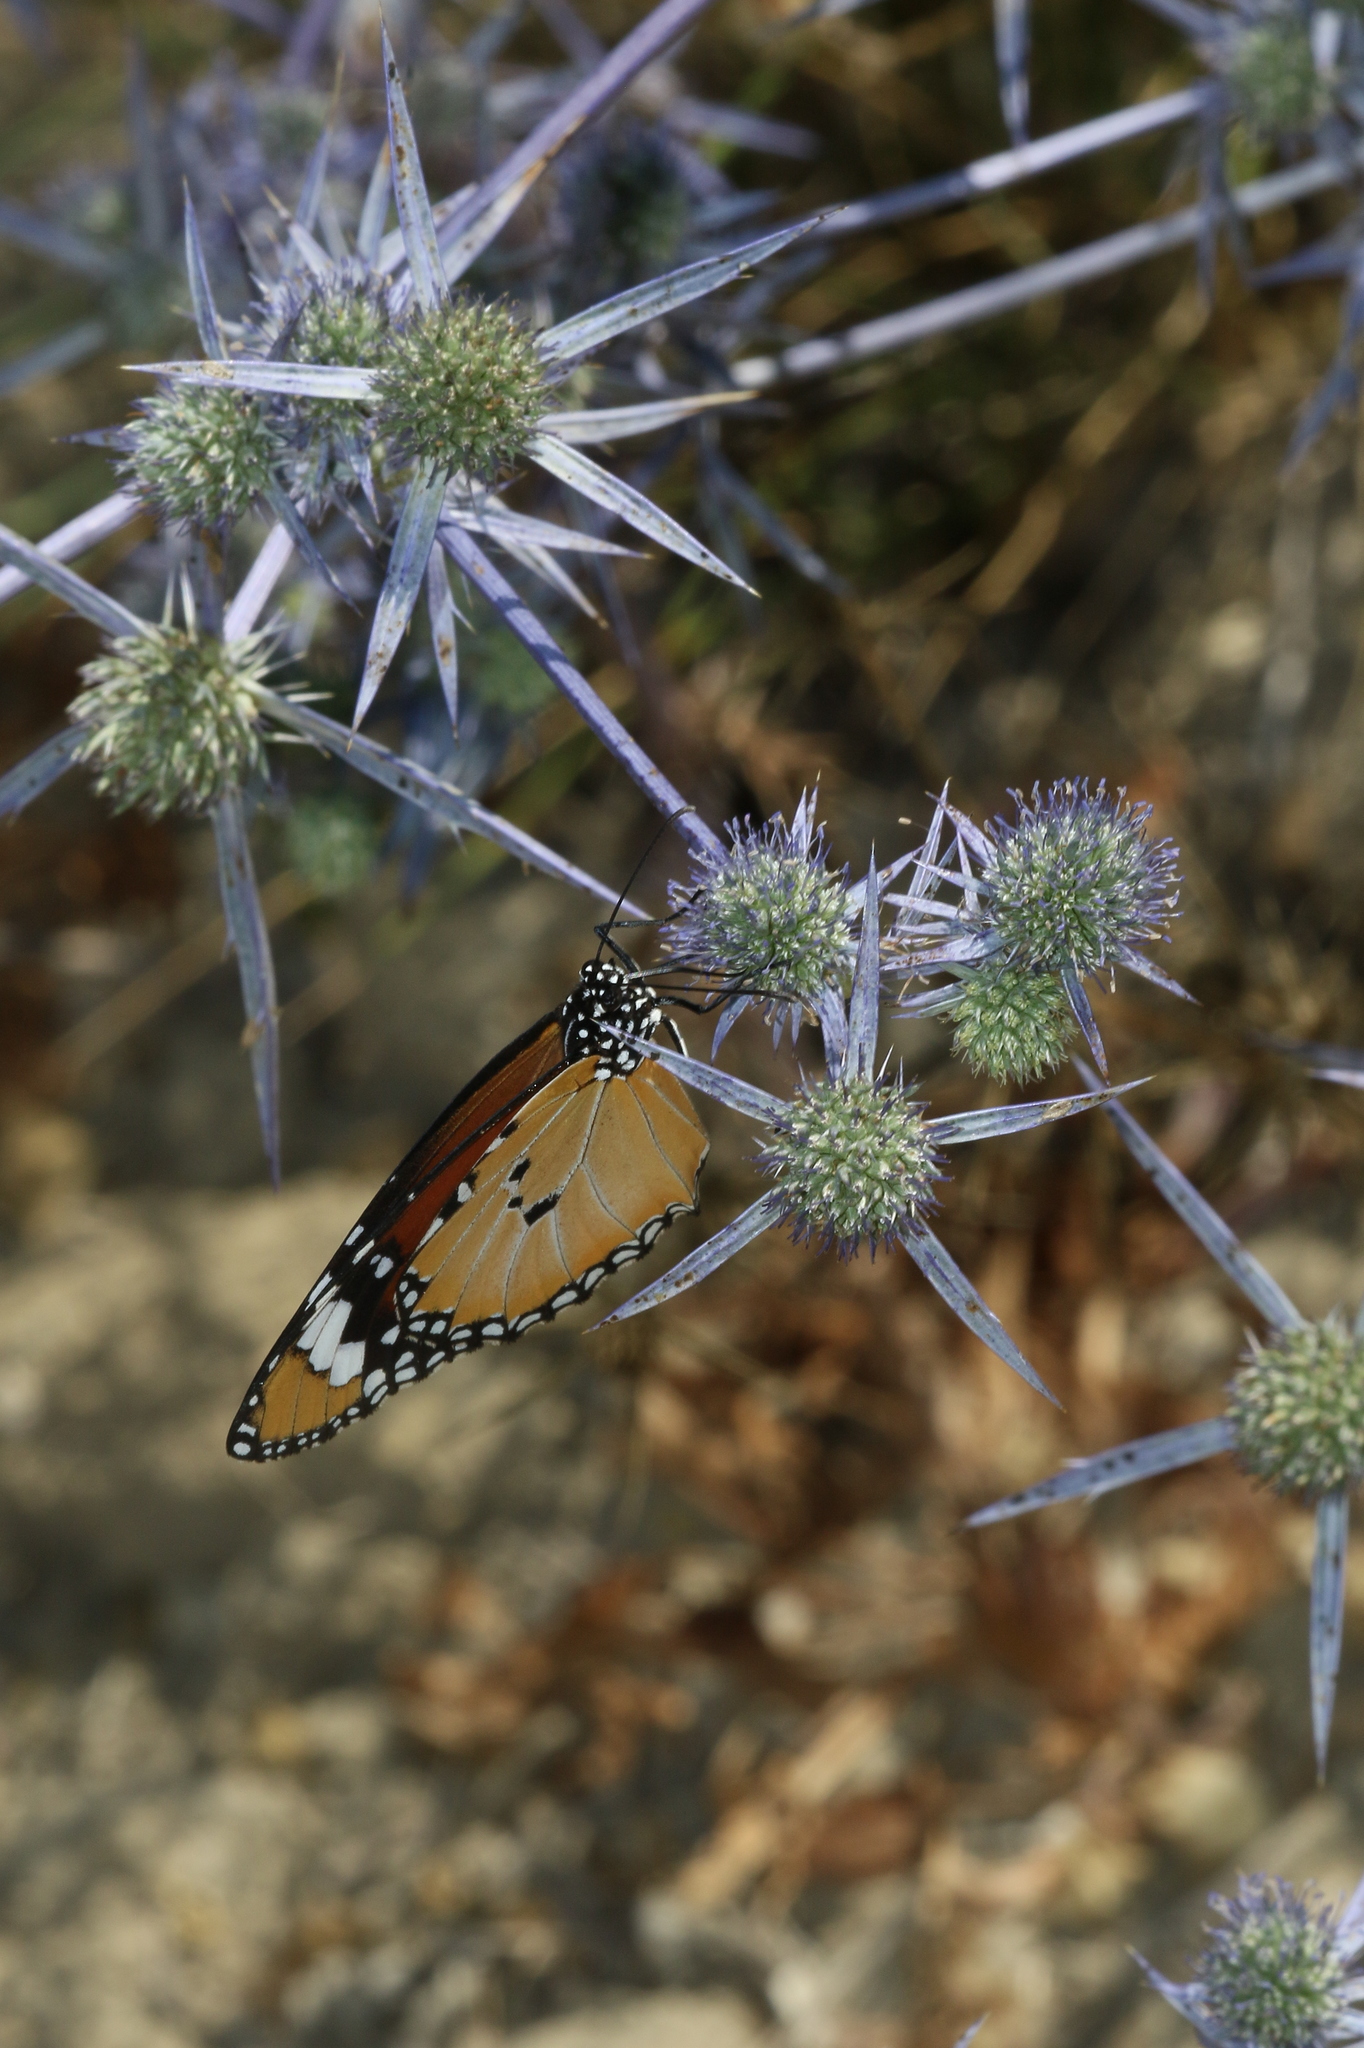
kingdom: Animalia
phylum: Arthropoda
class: Insecta
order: Lepidoptera
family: Nymphalidae
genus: Danaus
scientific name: Danaus chrysippus
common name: Plain tiger
